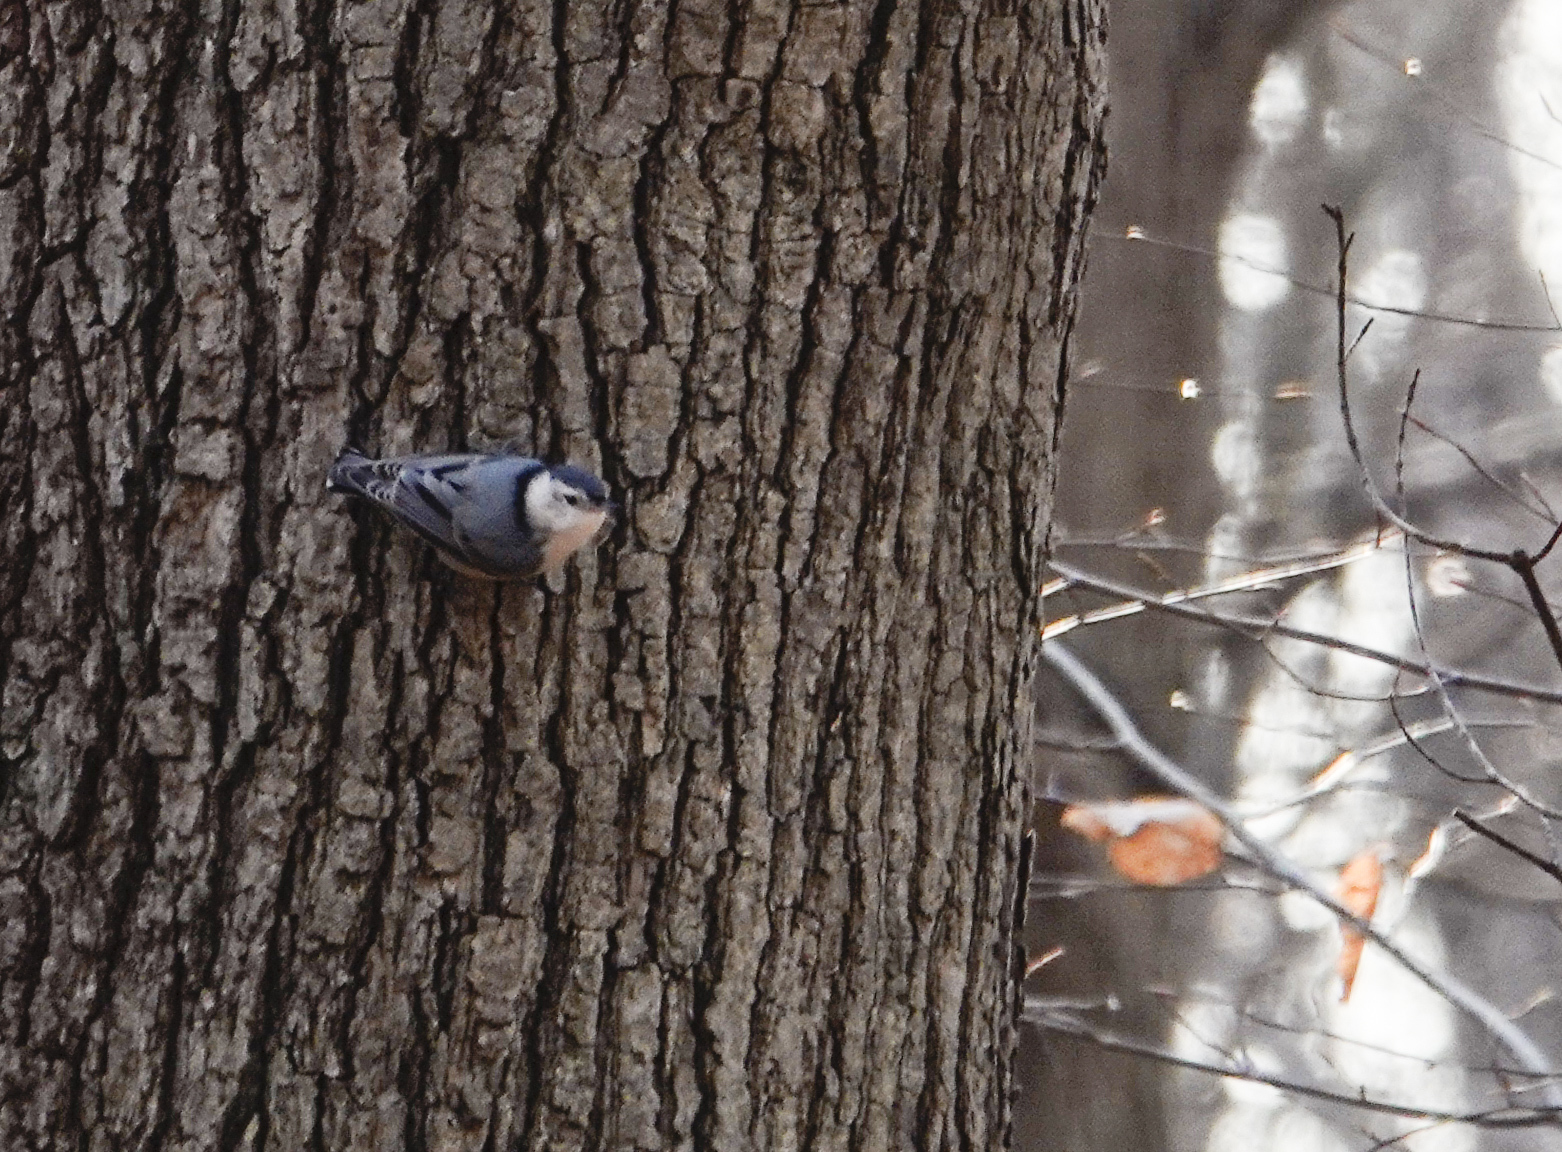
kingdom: Animalia
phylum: Chordata
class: Aves
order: Passeriformes
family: Sittidae
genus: Sitta
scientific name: Sitta carolinensis
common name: White-breasted nuthatch
